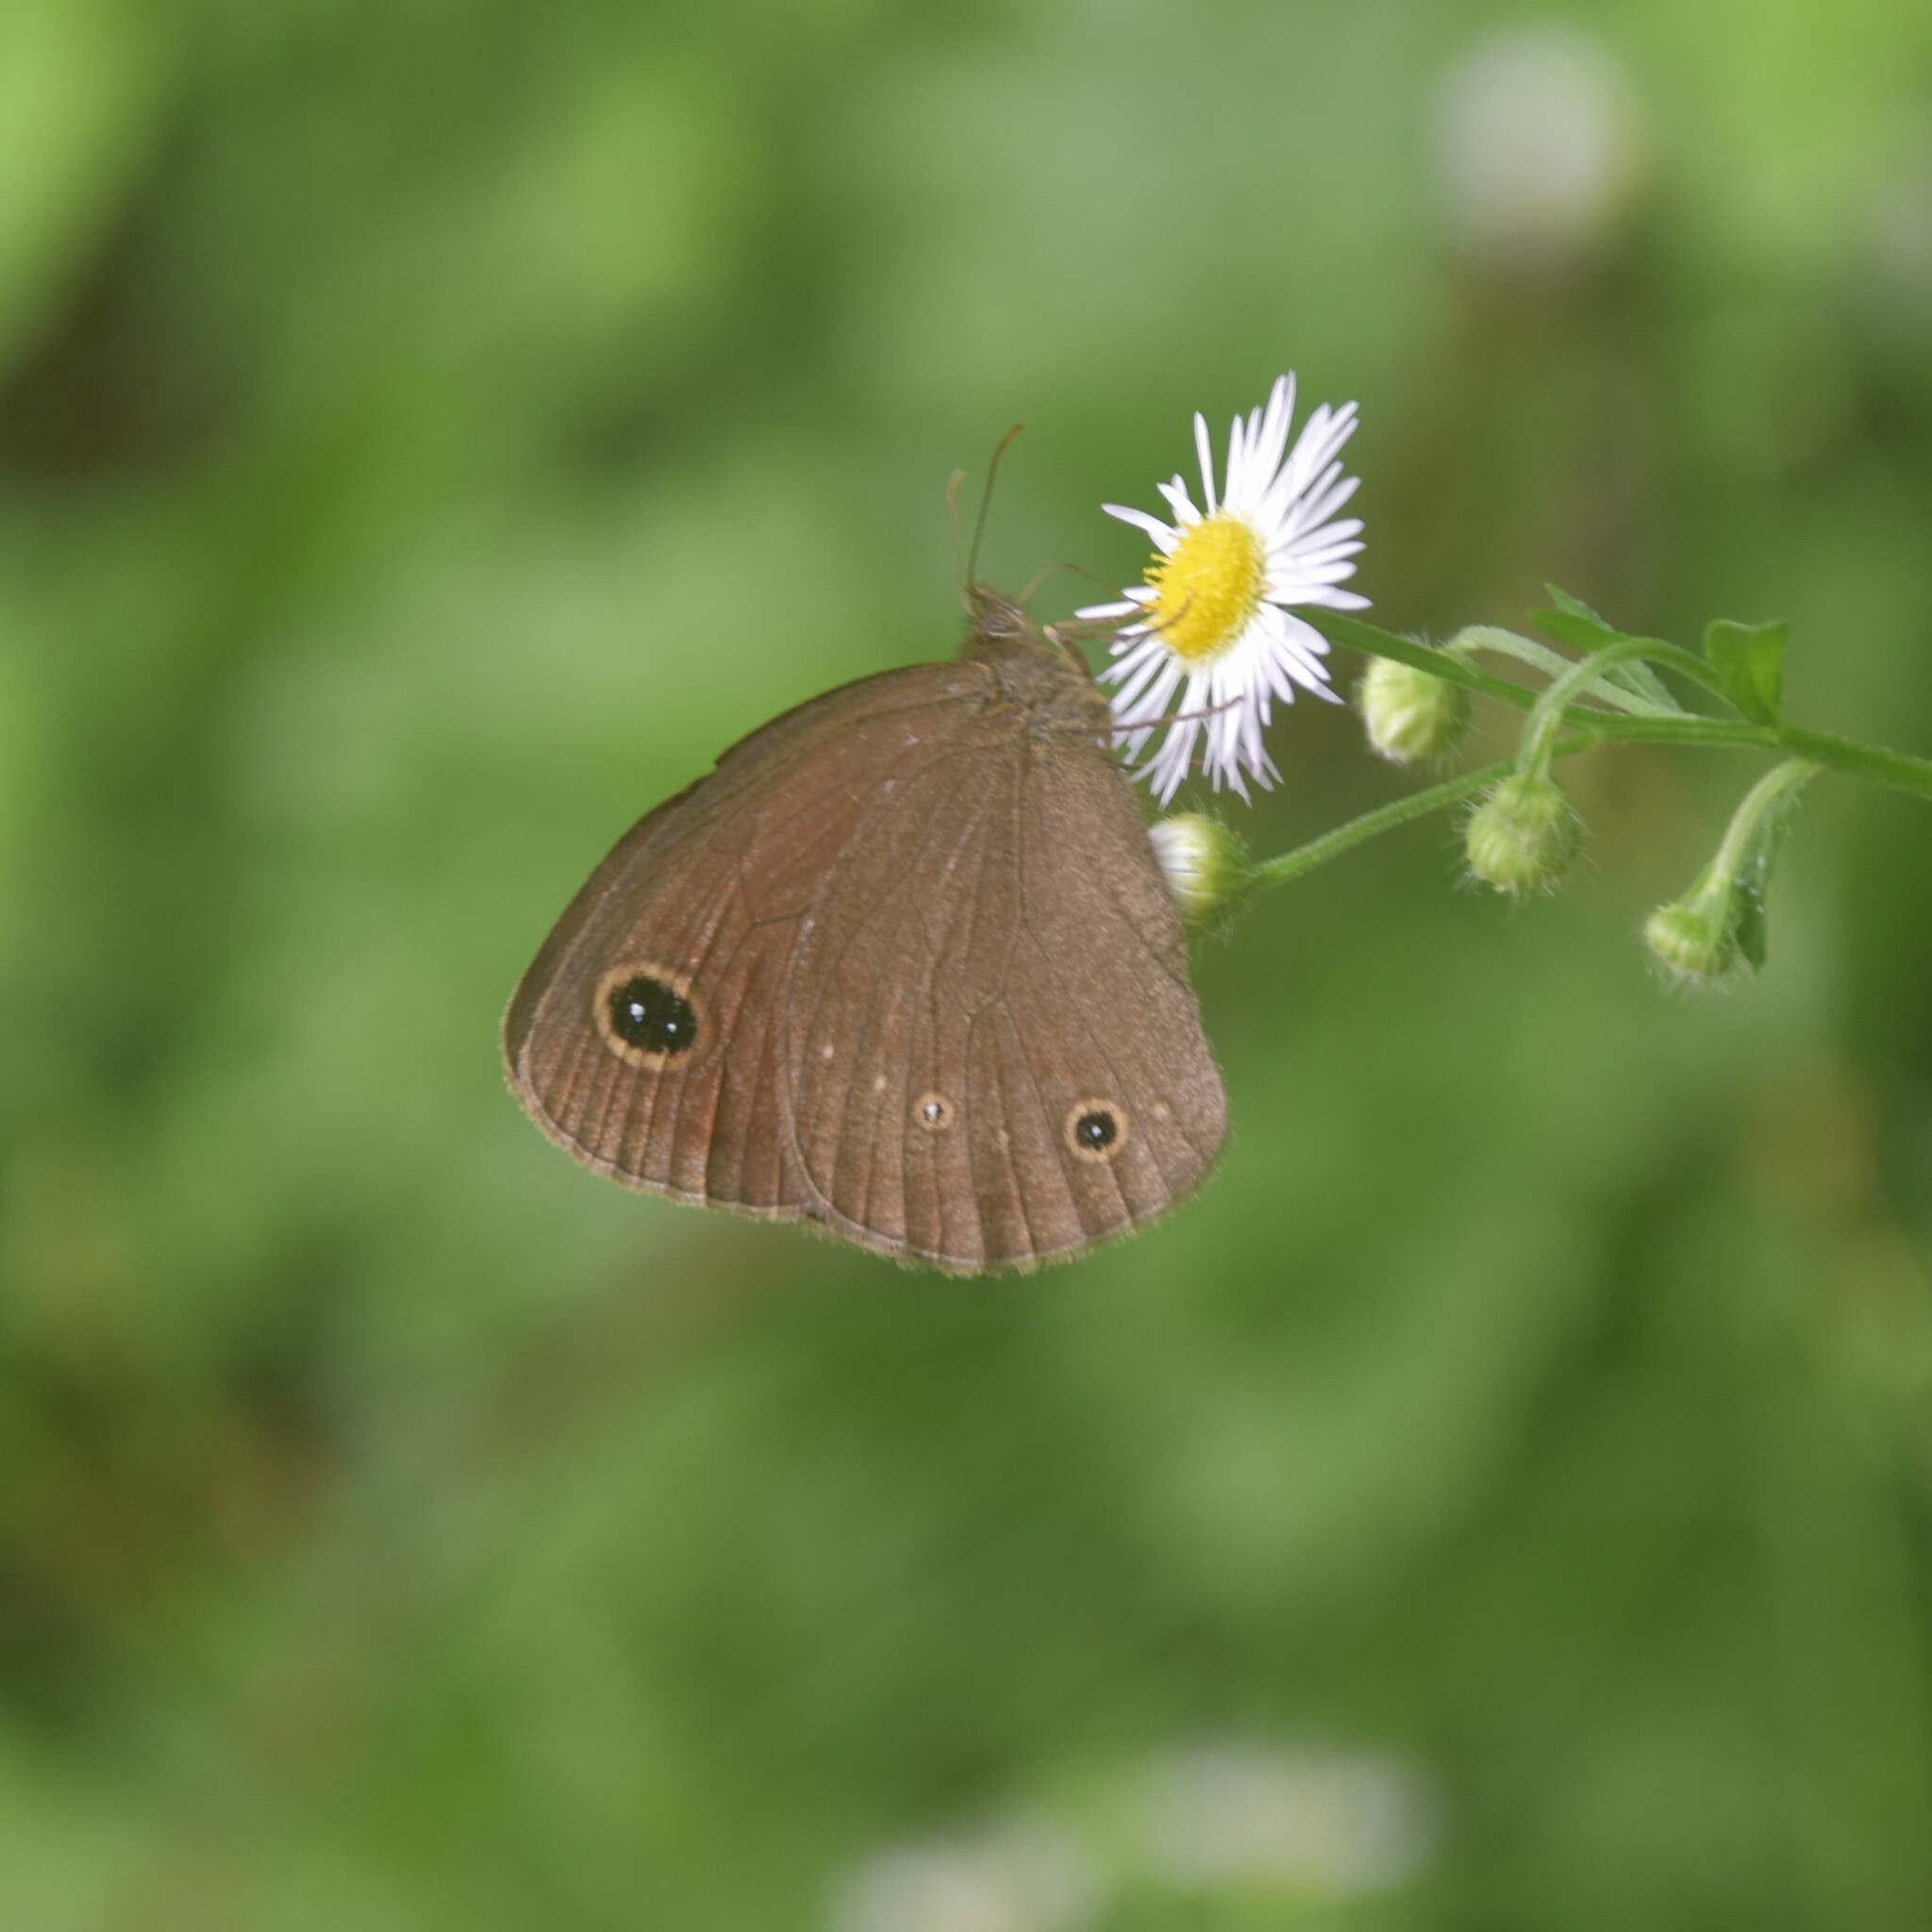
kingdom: Animalia
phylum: Arthropoda
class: Insecta
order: Lepidoptera
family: Nymphalidae
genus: Callerebia
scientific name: Callerebia nirmala
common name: Common argus
